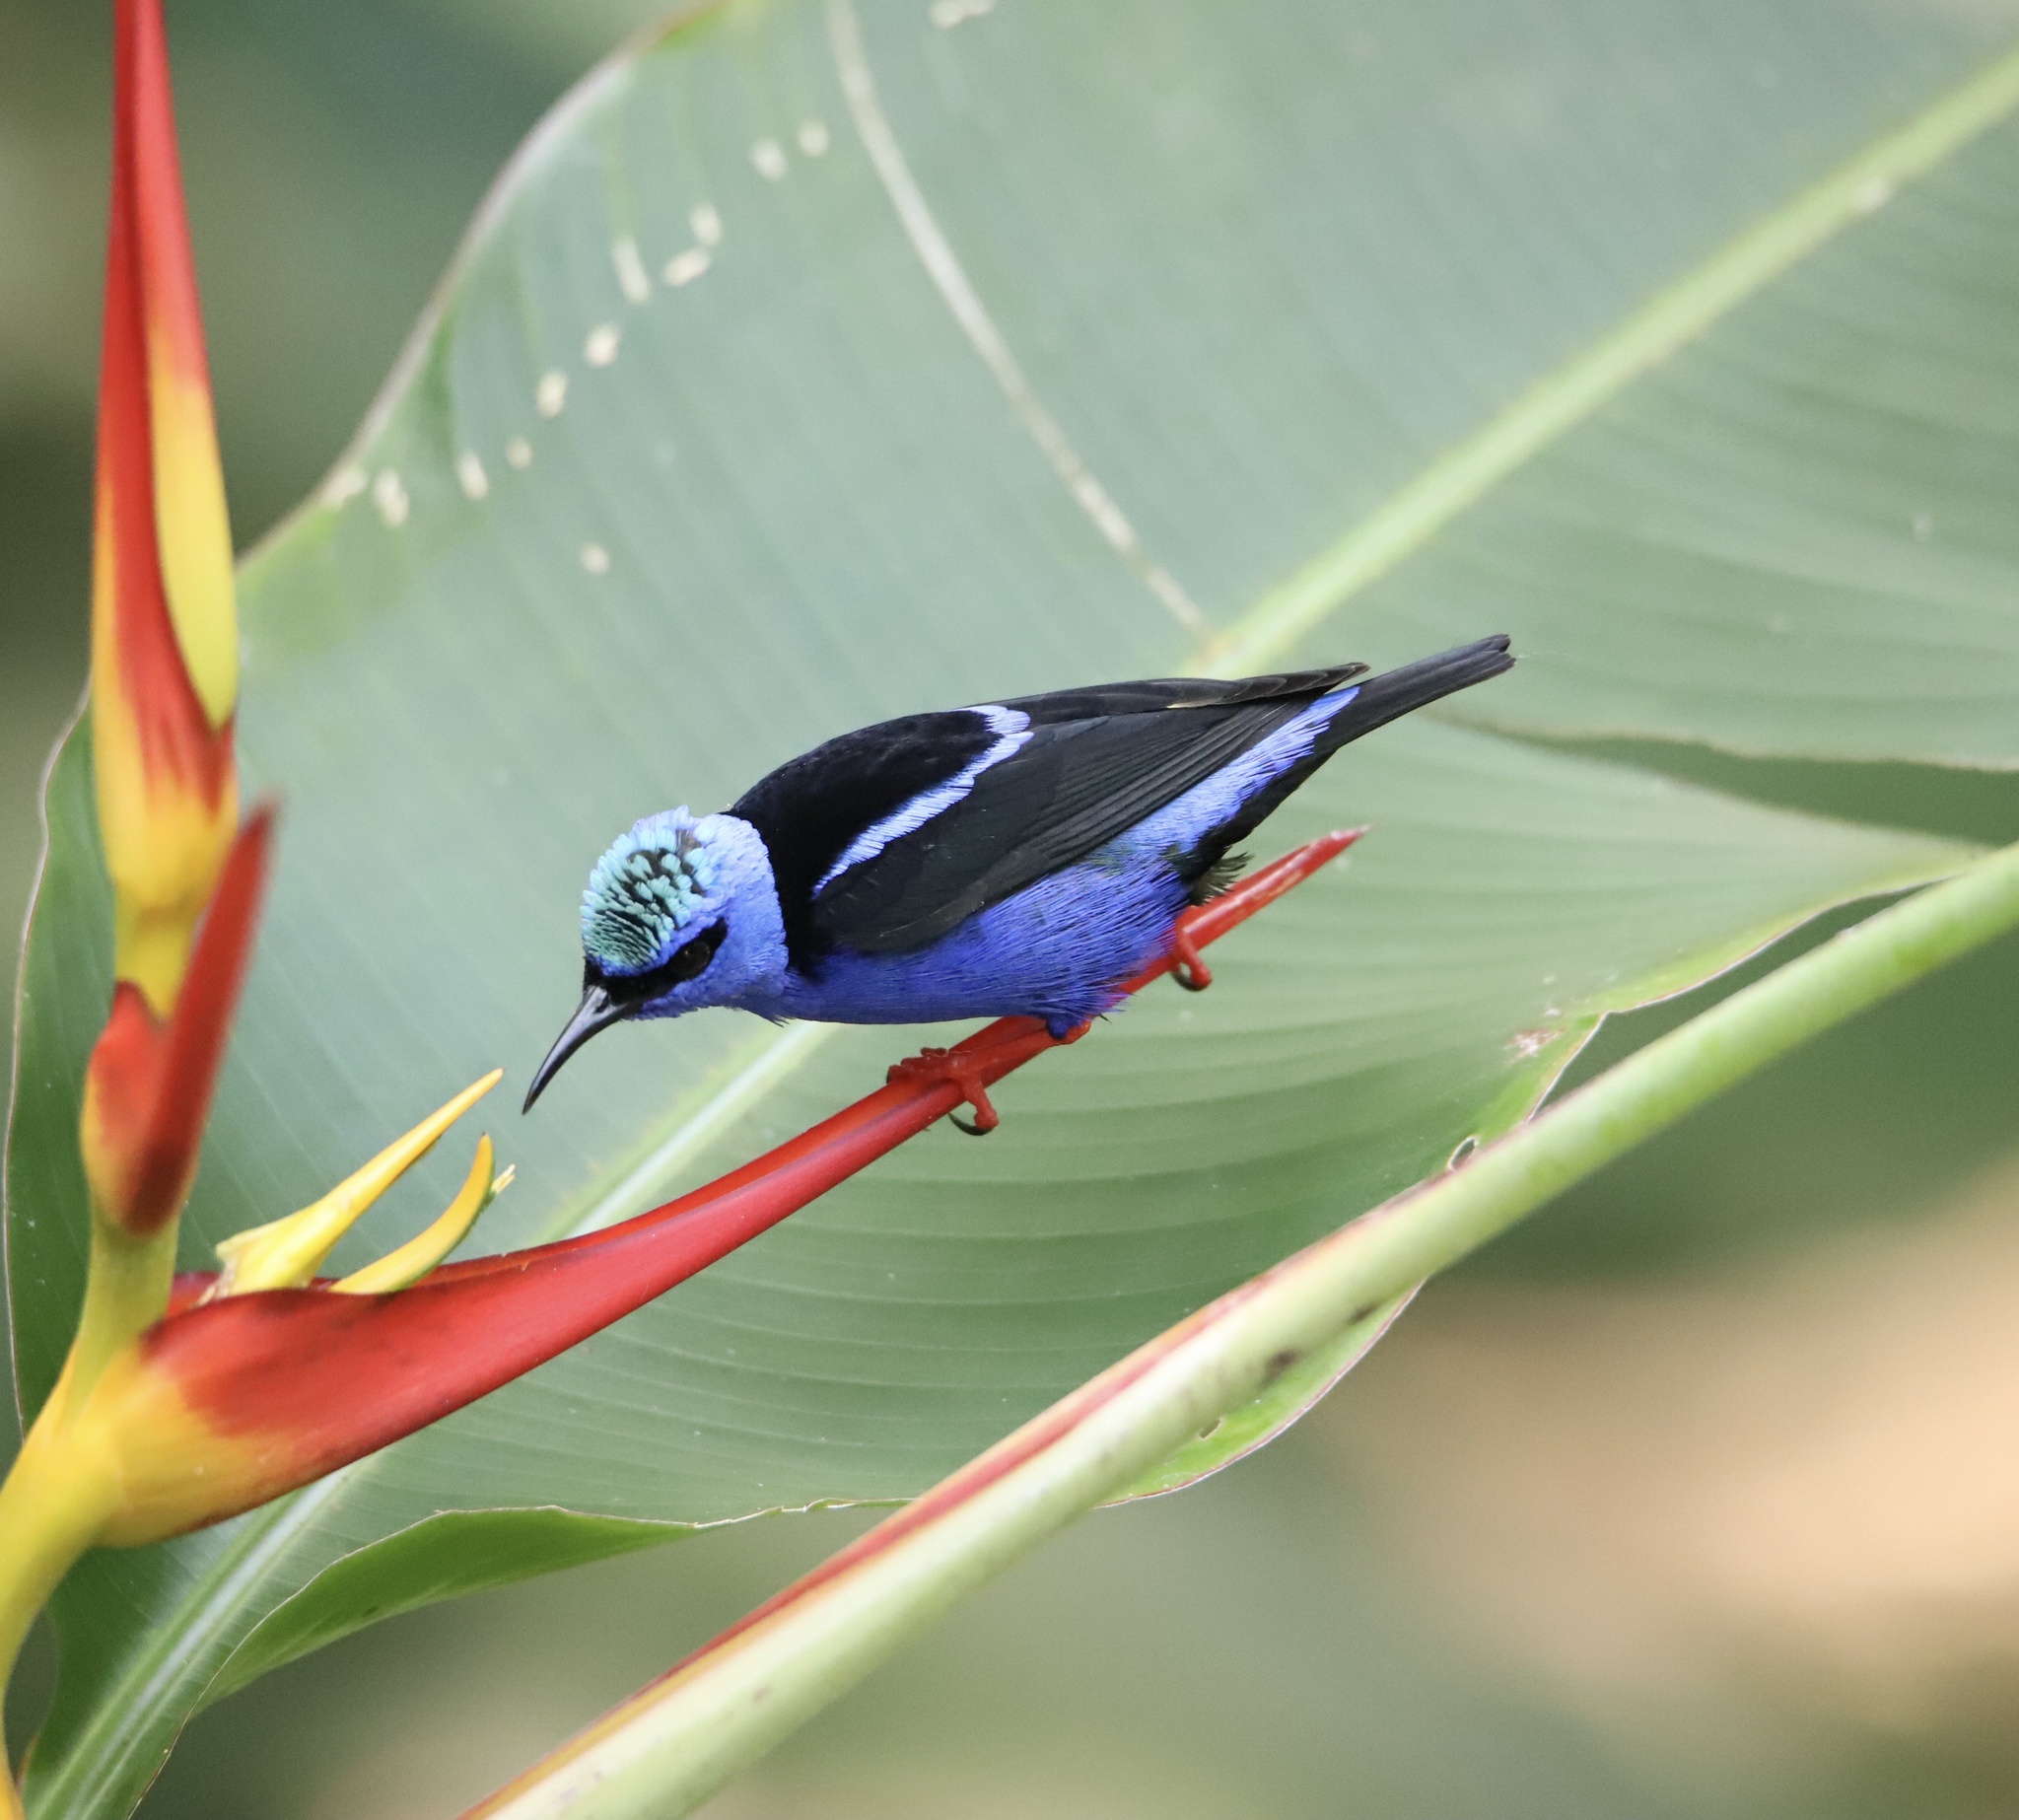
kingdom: Animalia
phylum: Chordata
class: Aves
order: Passeriformes
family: Thraupidae
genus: Cyanerpes
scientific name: Cyanerpes cyaneus
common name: Red-legged honeycreeper
